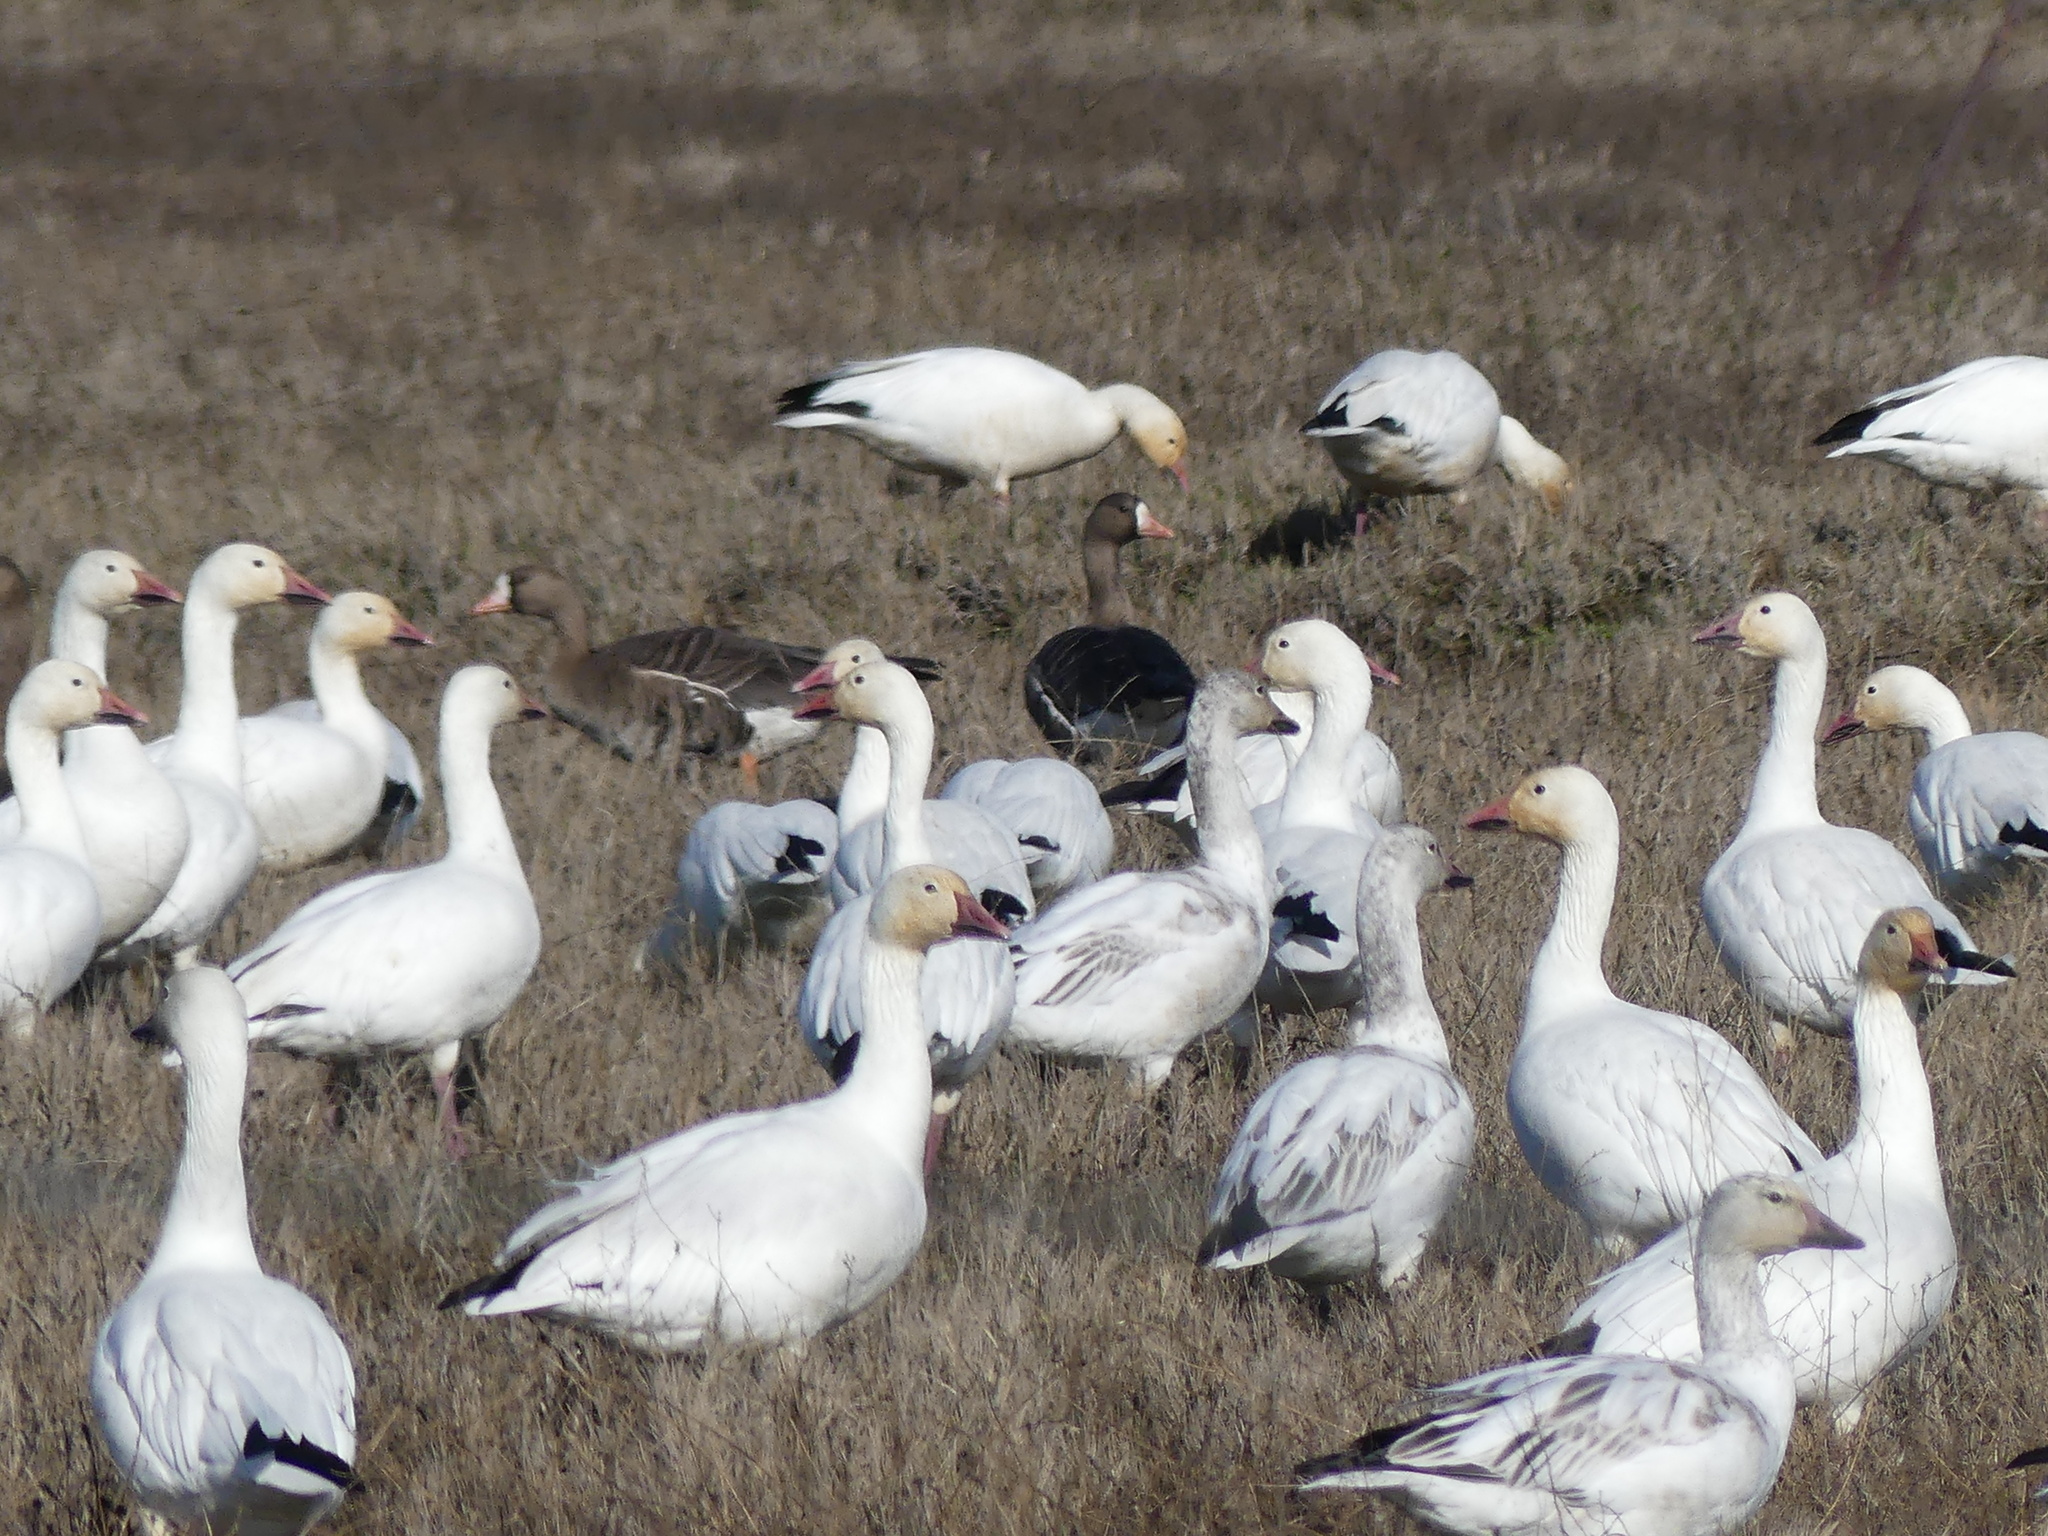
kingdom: Animalia
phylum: Chordata
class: Aves
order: Anseriformes
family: Anatidae
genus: Anser
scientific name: Anser caerulescens
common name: Snow goose
